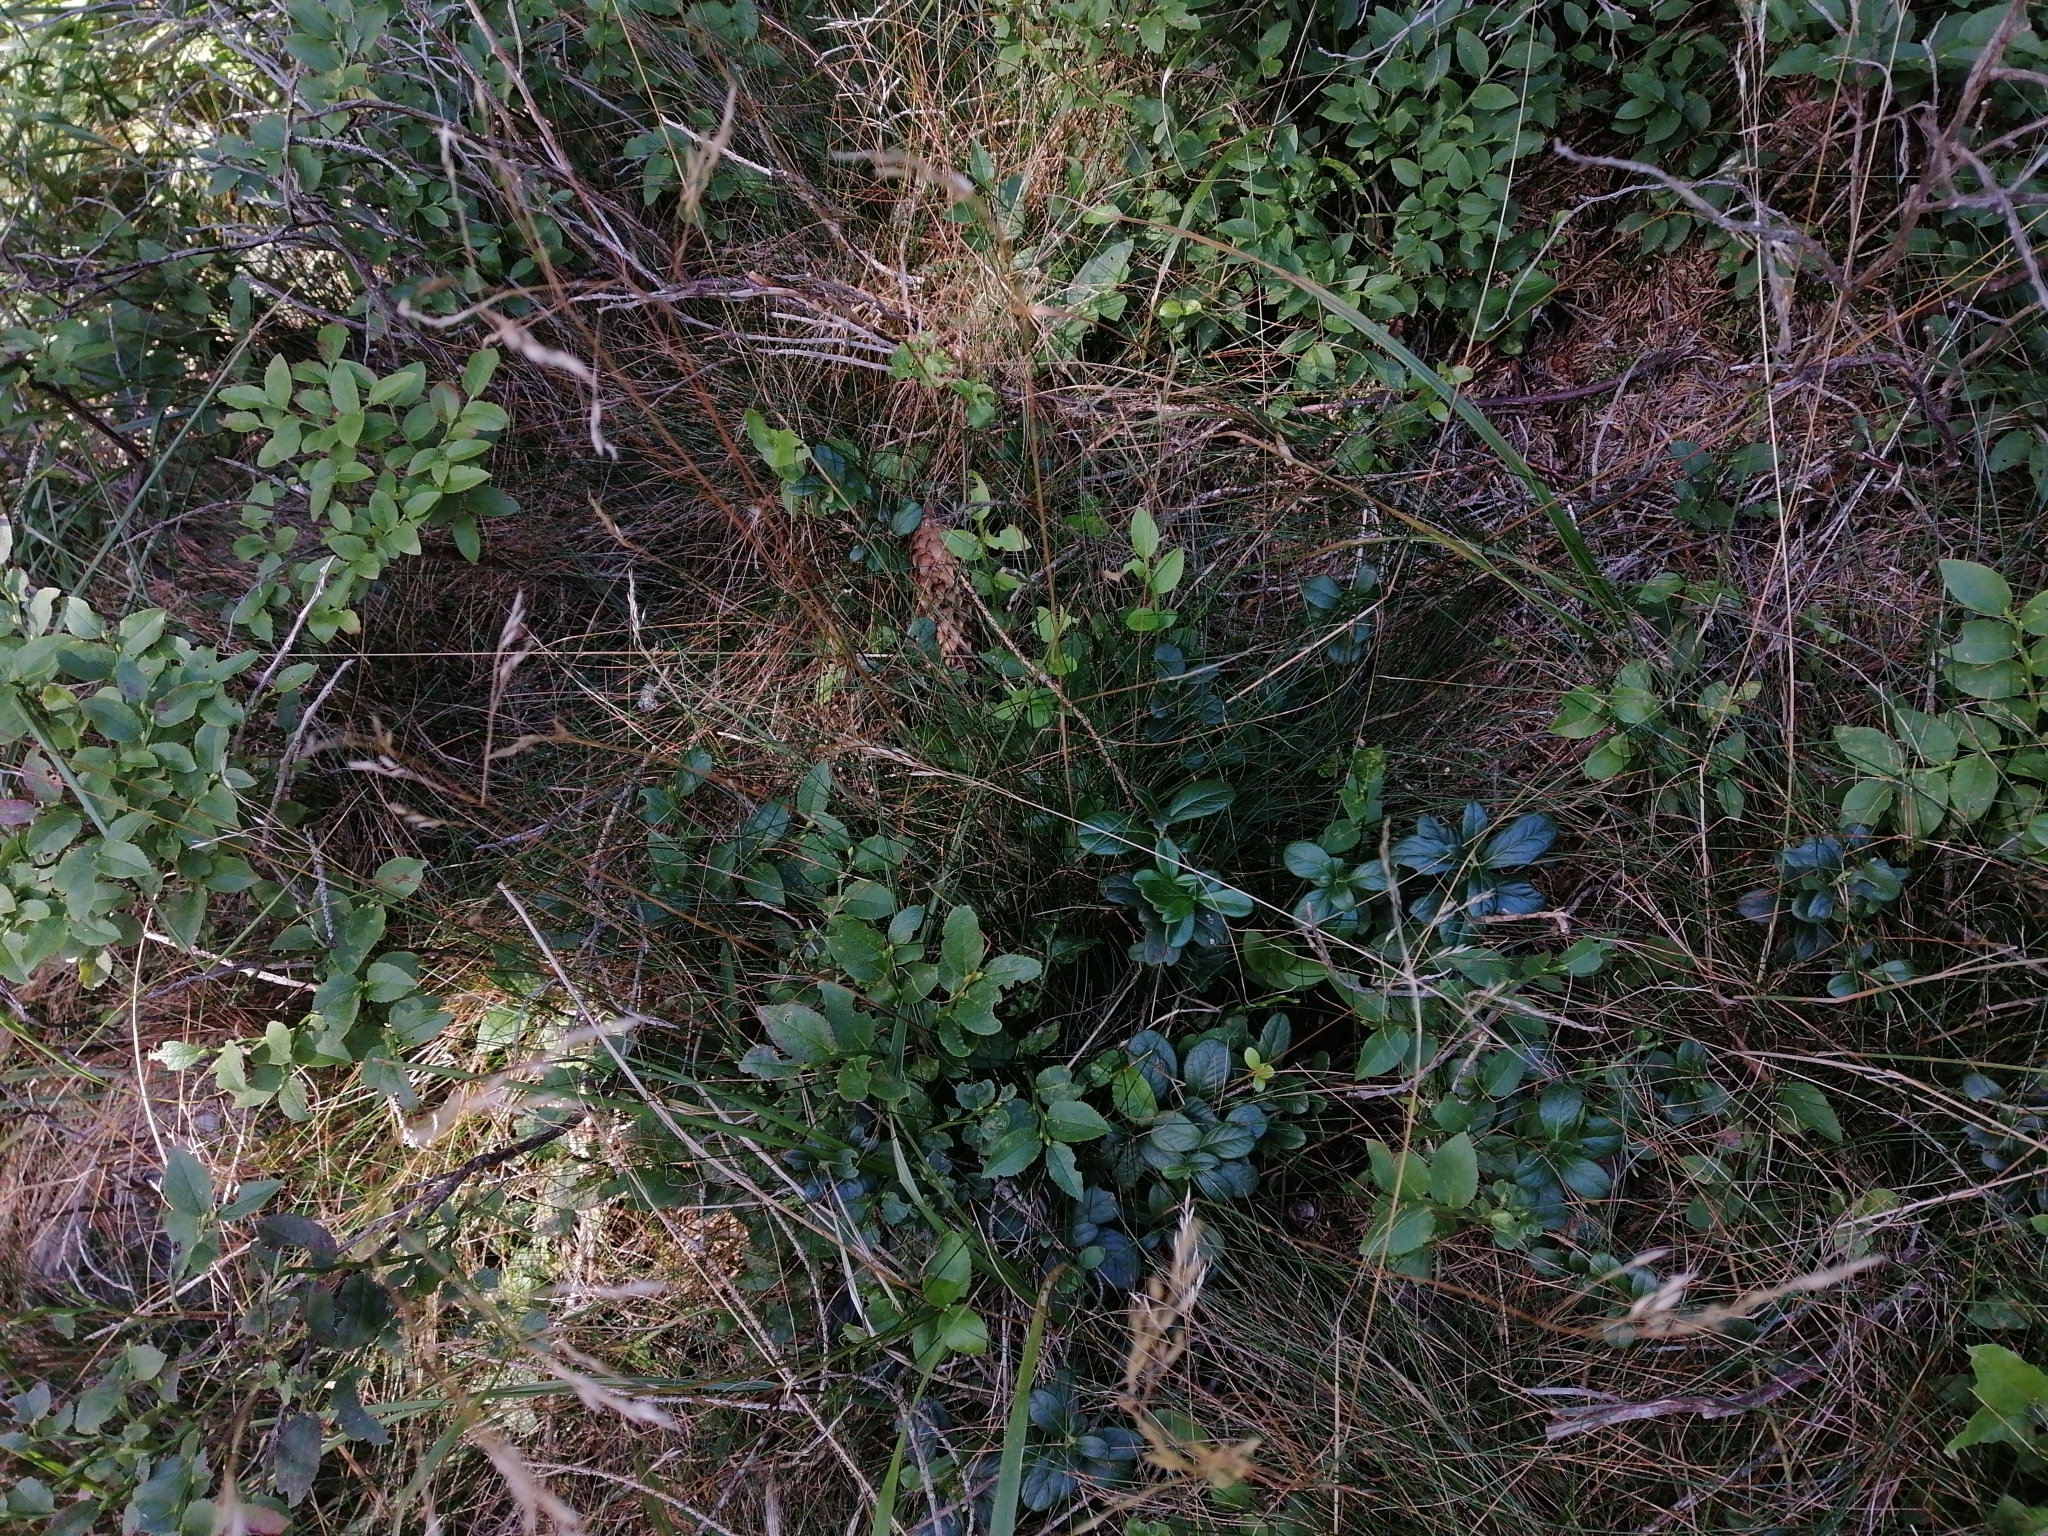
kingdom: Plantae
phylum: Tracheophyta
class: Magnoliopsida
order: Ericales
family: Ericaceae
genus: Vaccinium
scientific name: Vaccinium vitis-idaea
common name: Cowberry
